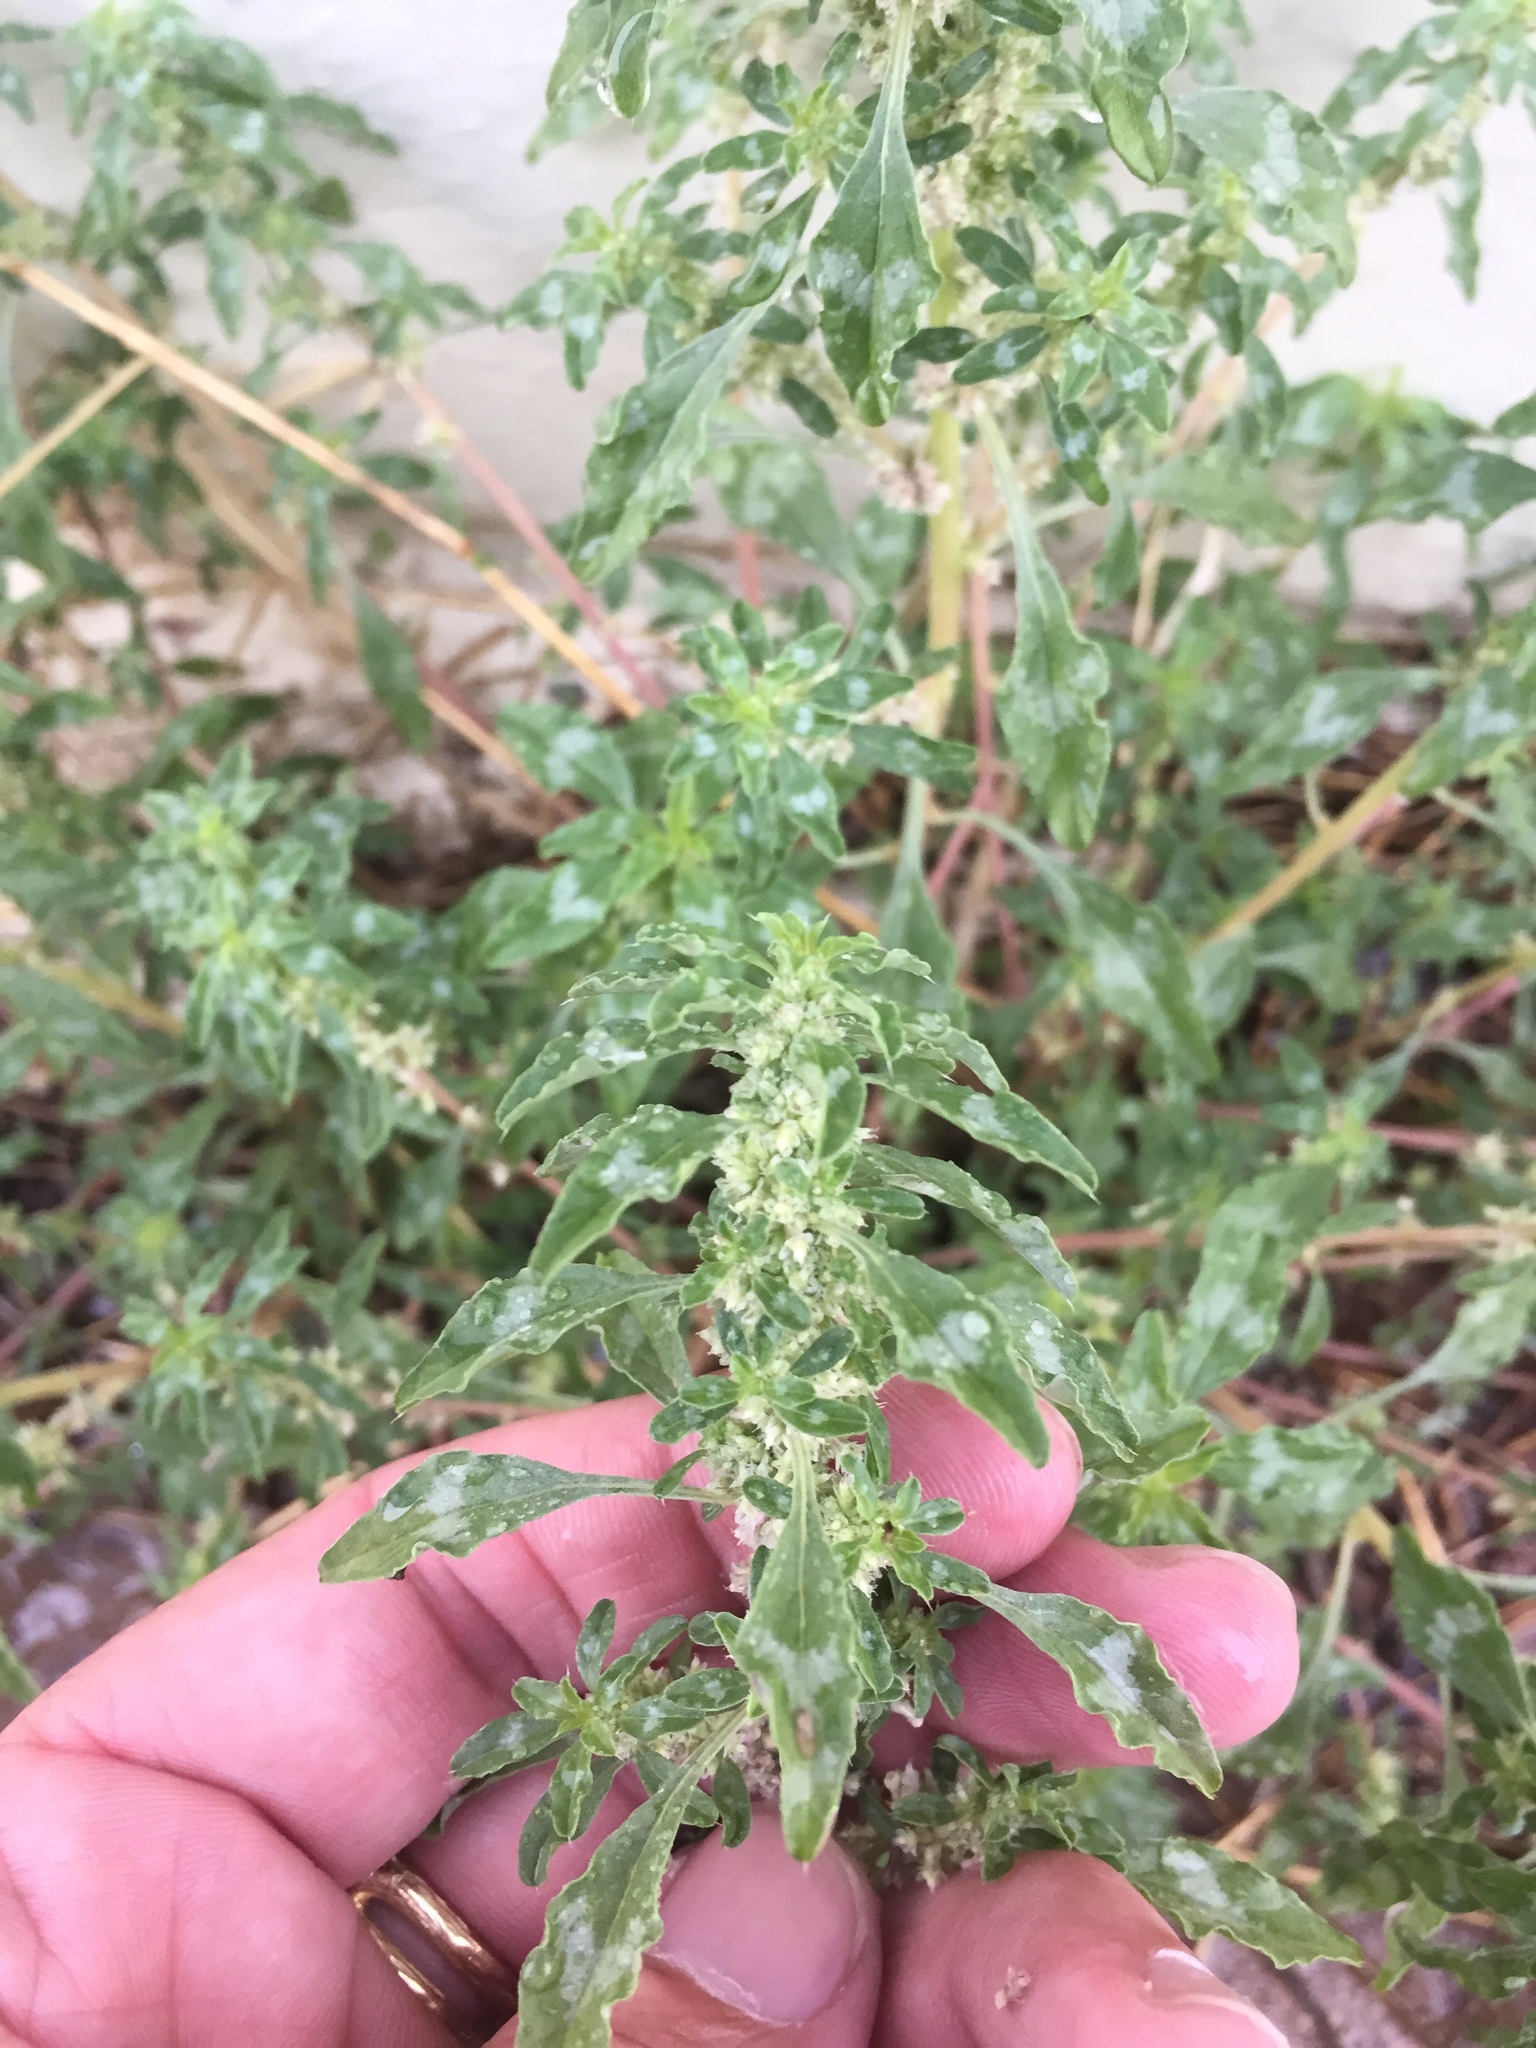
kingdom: Plantae
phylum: Tracheophyta
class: Magnoliopsida
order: Caryophyllales
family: Amaranthaceae
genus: Amaranthus
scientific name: Amaranthus polygonoides
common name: Tropical amaranth
